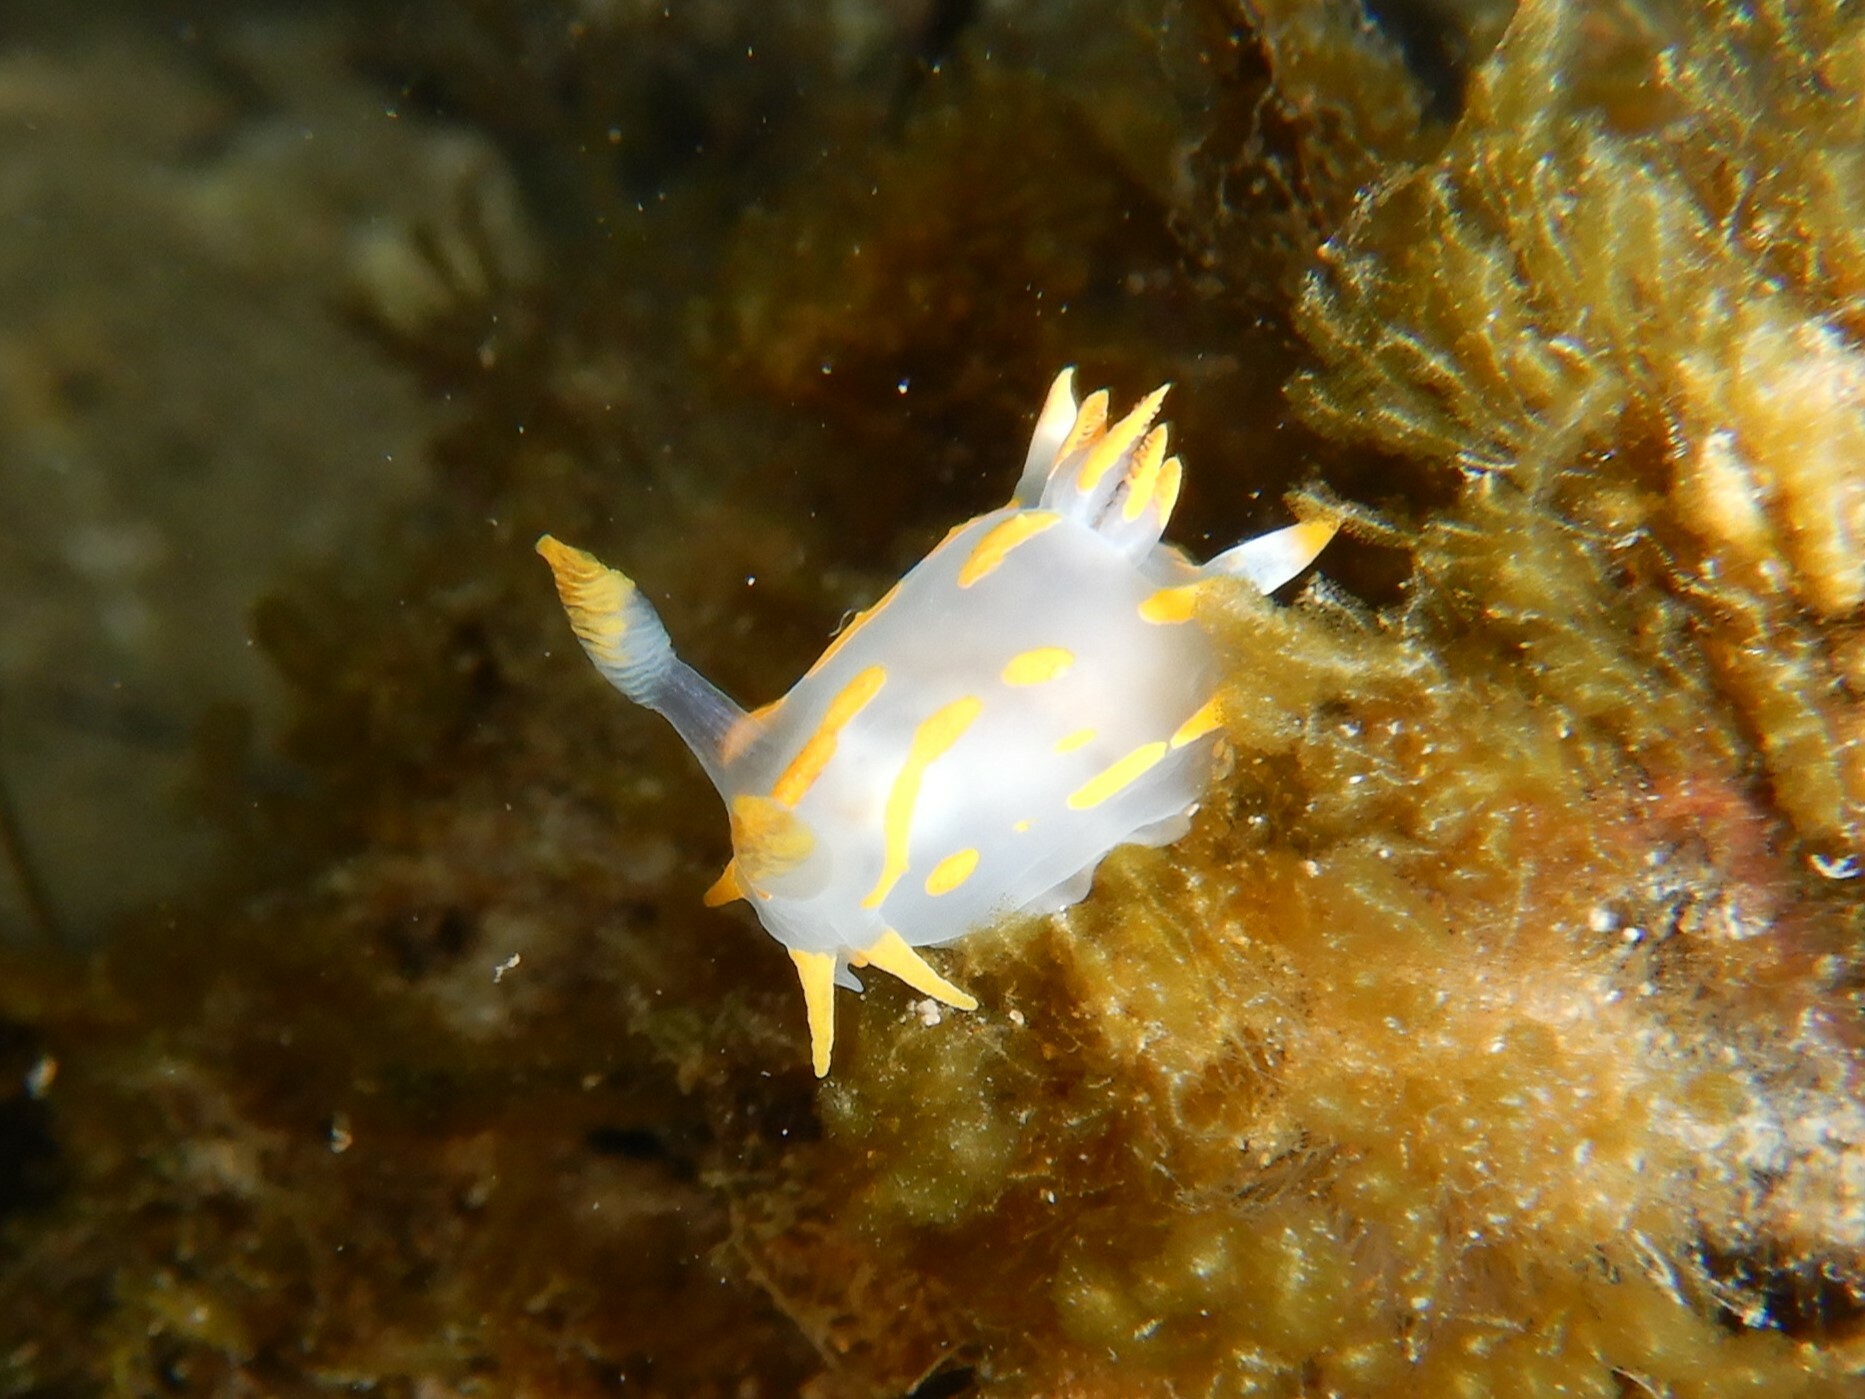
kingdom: Animalia
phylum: Mollusca
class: Gastropoda
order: Nudibranchia
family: Polyceridae
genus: Polycera
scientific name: Polycera quadrilineata
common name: Four-striped polycera
